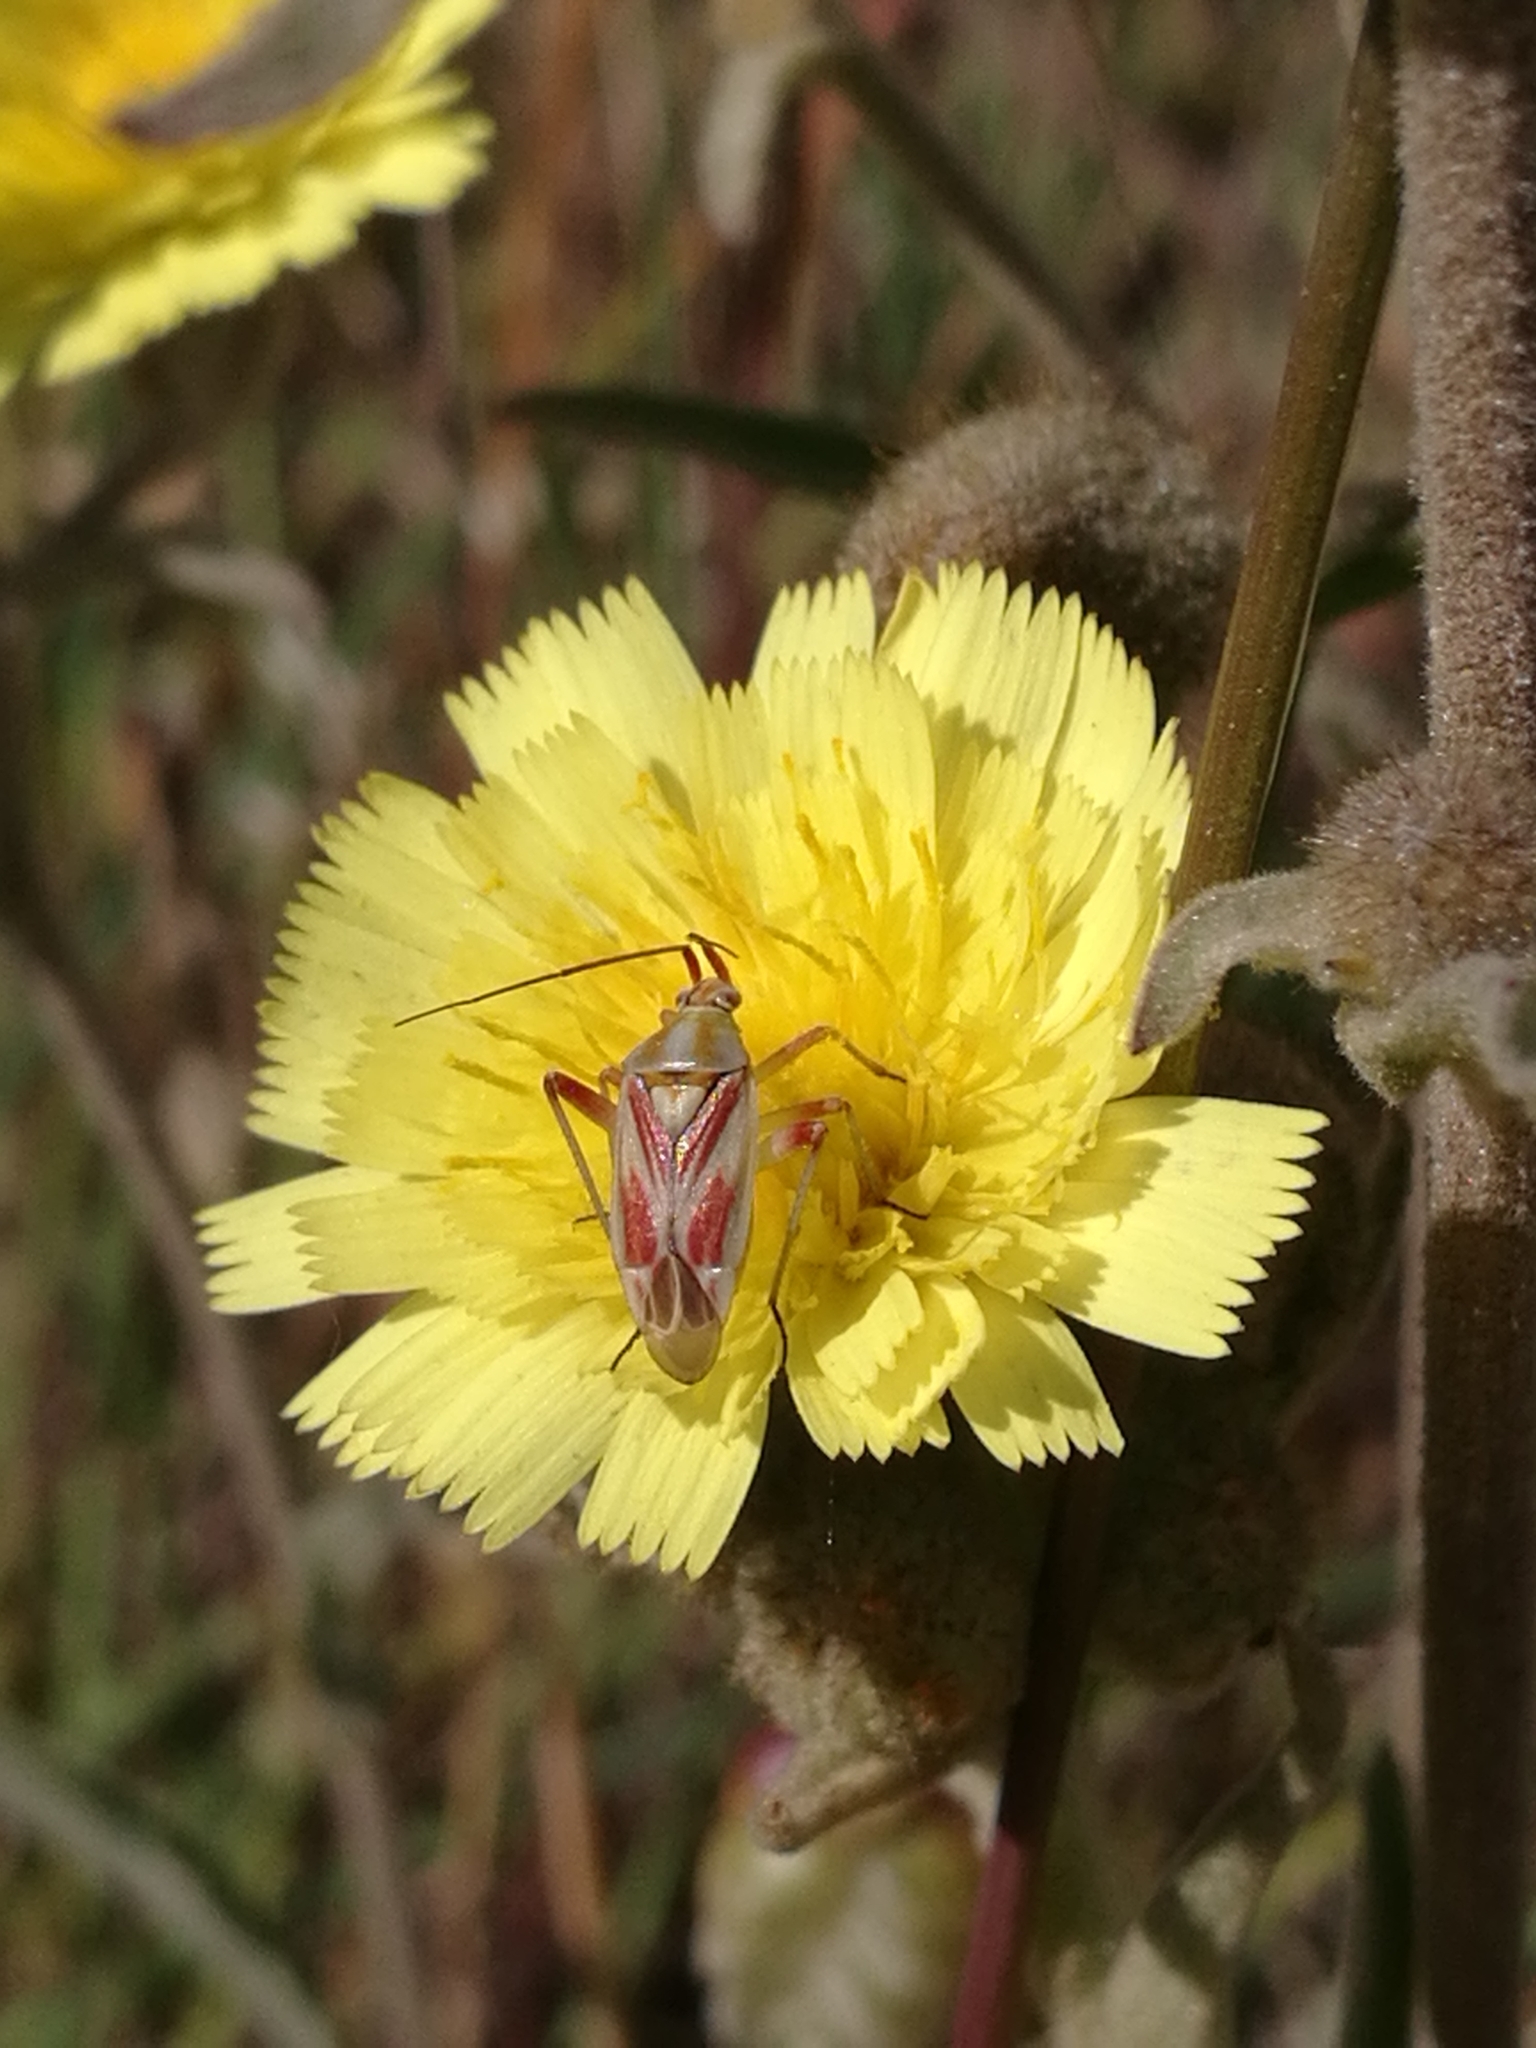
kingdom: Animalia
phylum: Arthropoda
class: Insecta
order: Hemiptera
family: Miridae
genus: Calocoris
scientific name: Calocoris roseomaculatus
